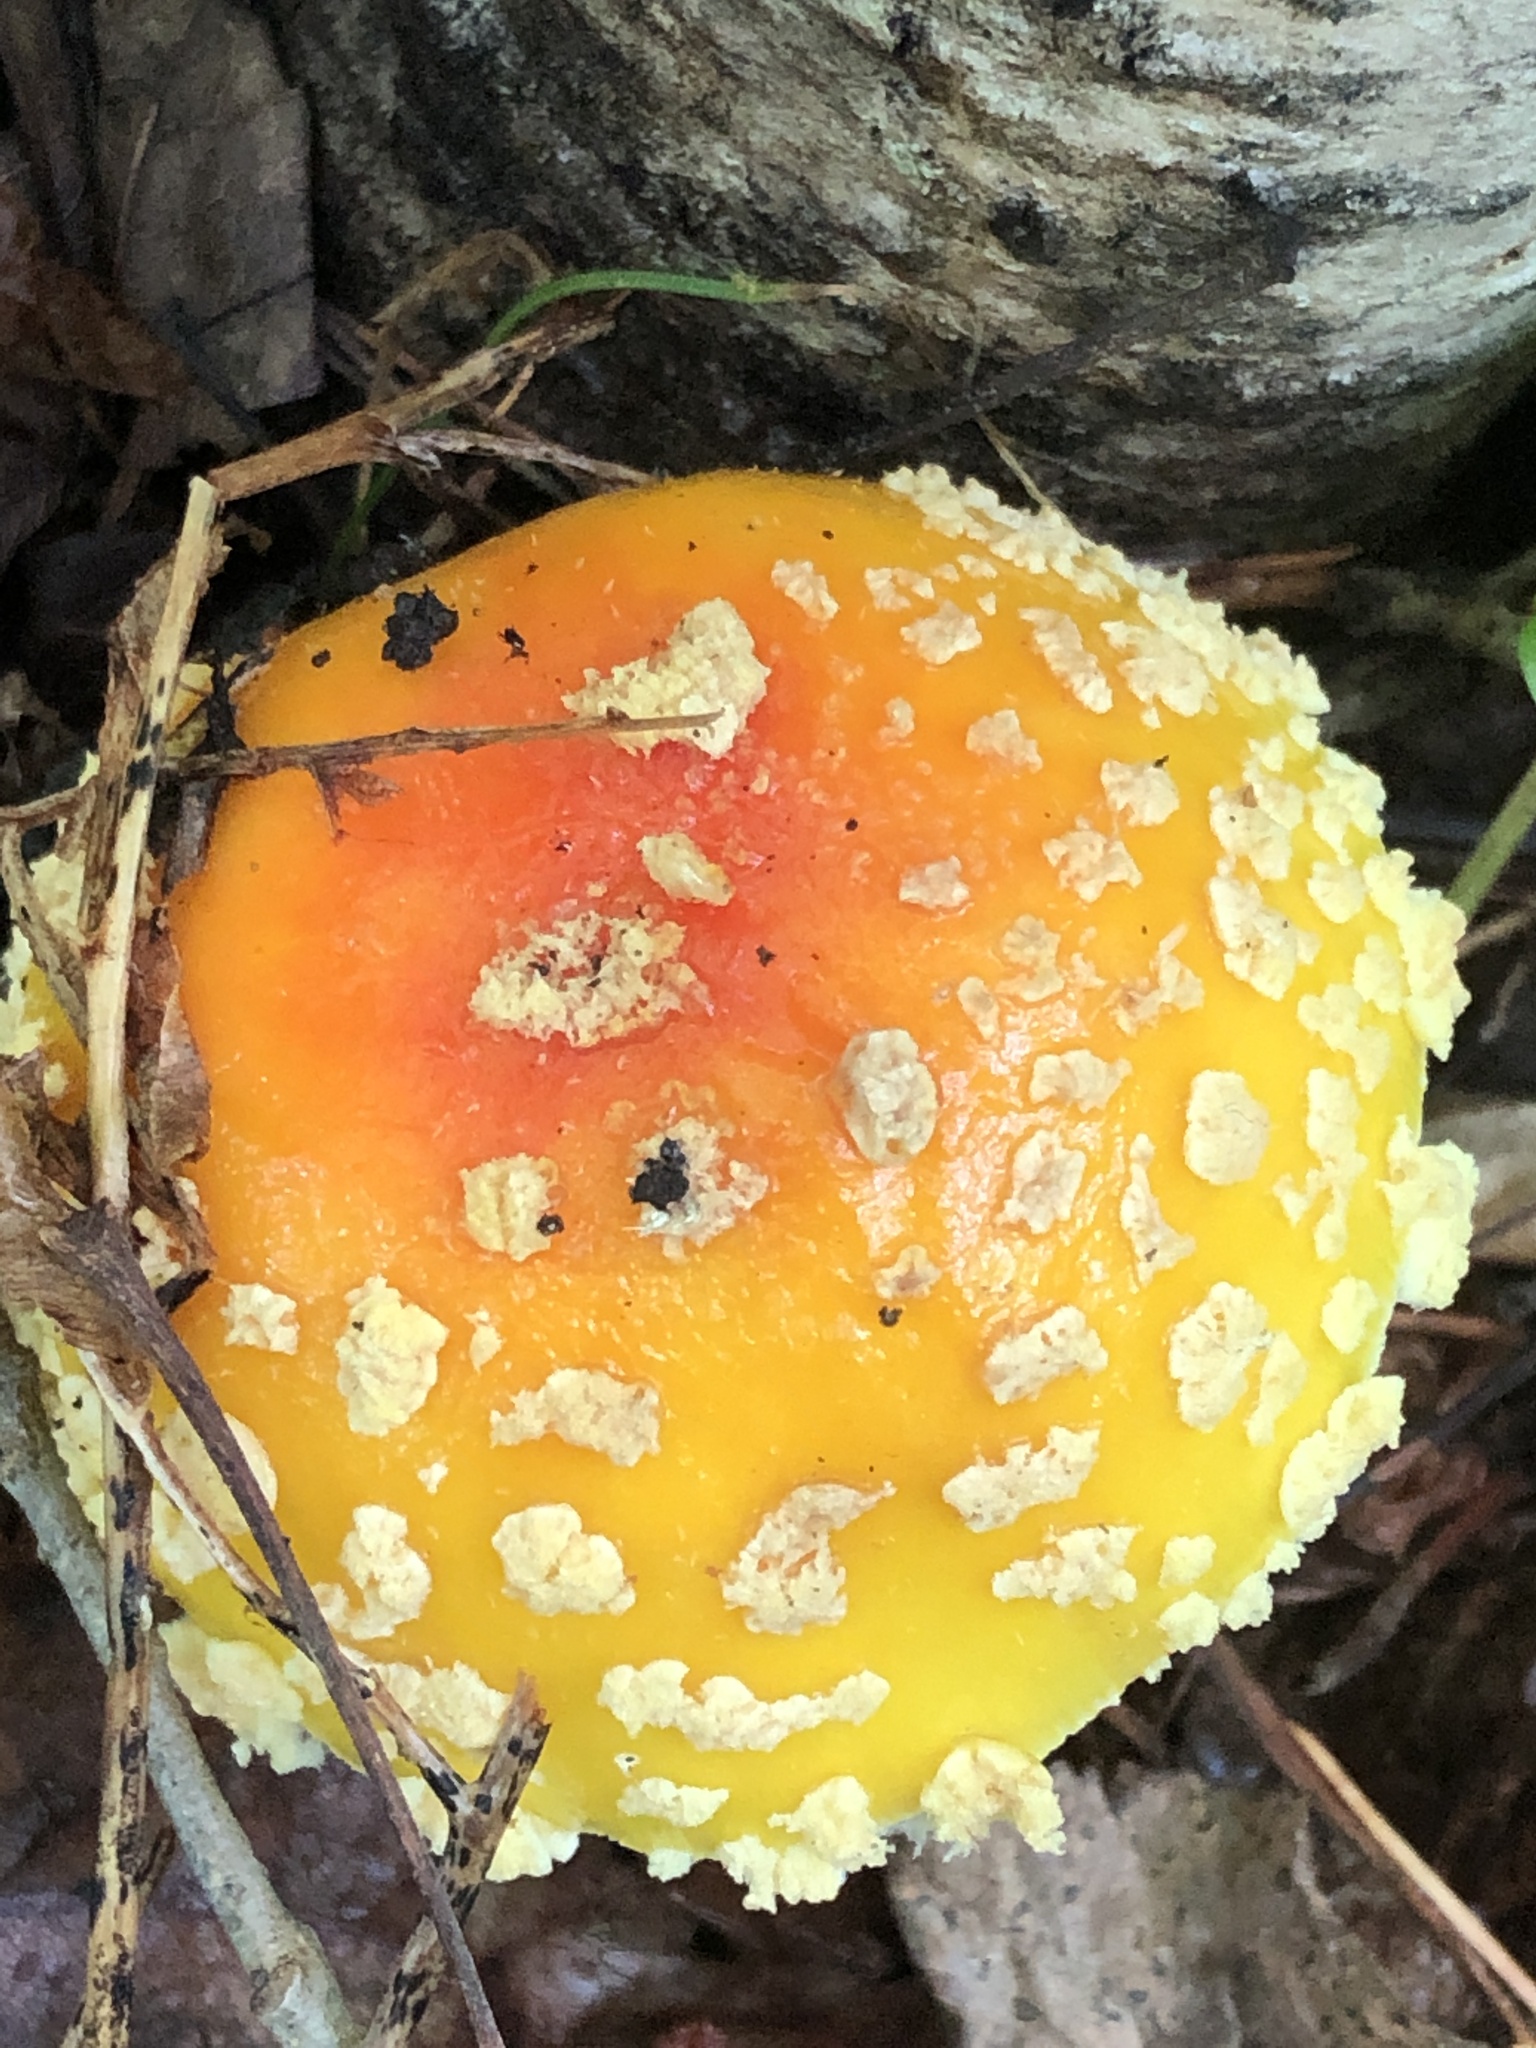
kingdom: Fungi
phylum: Basidiomycota
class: Agaricomycetes
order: Agaricales
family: Amanitaceae
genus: Amanita
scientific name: Amanita muscaria
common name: Fly agaric
